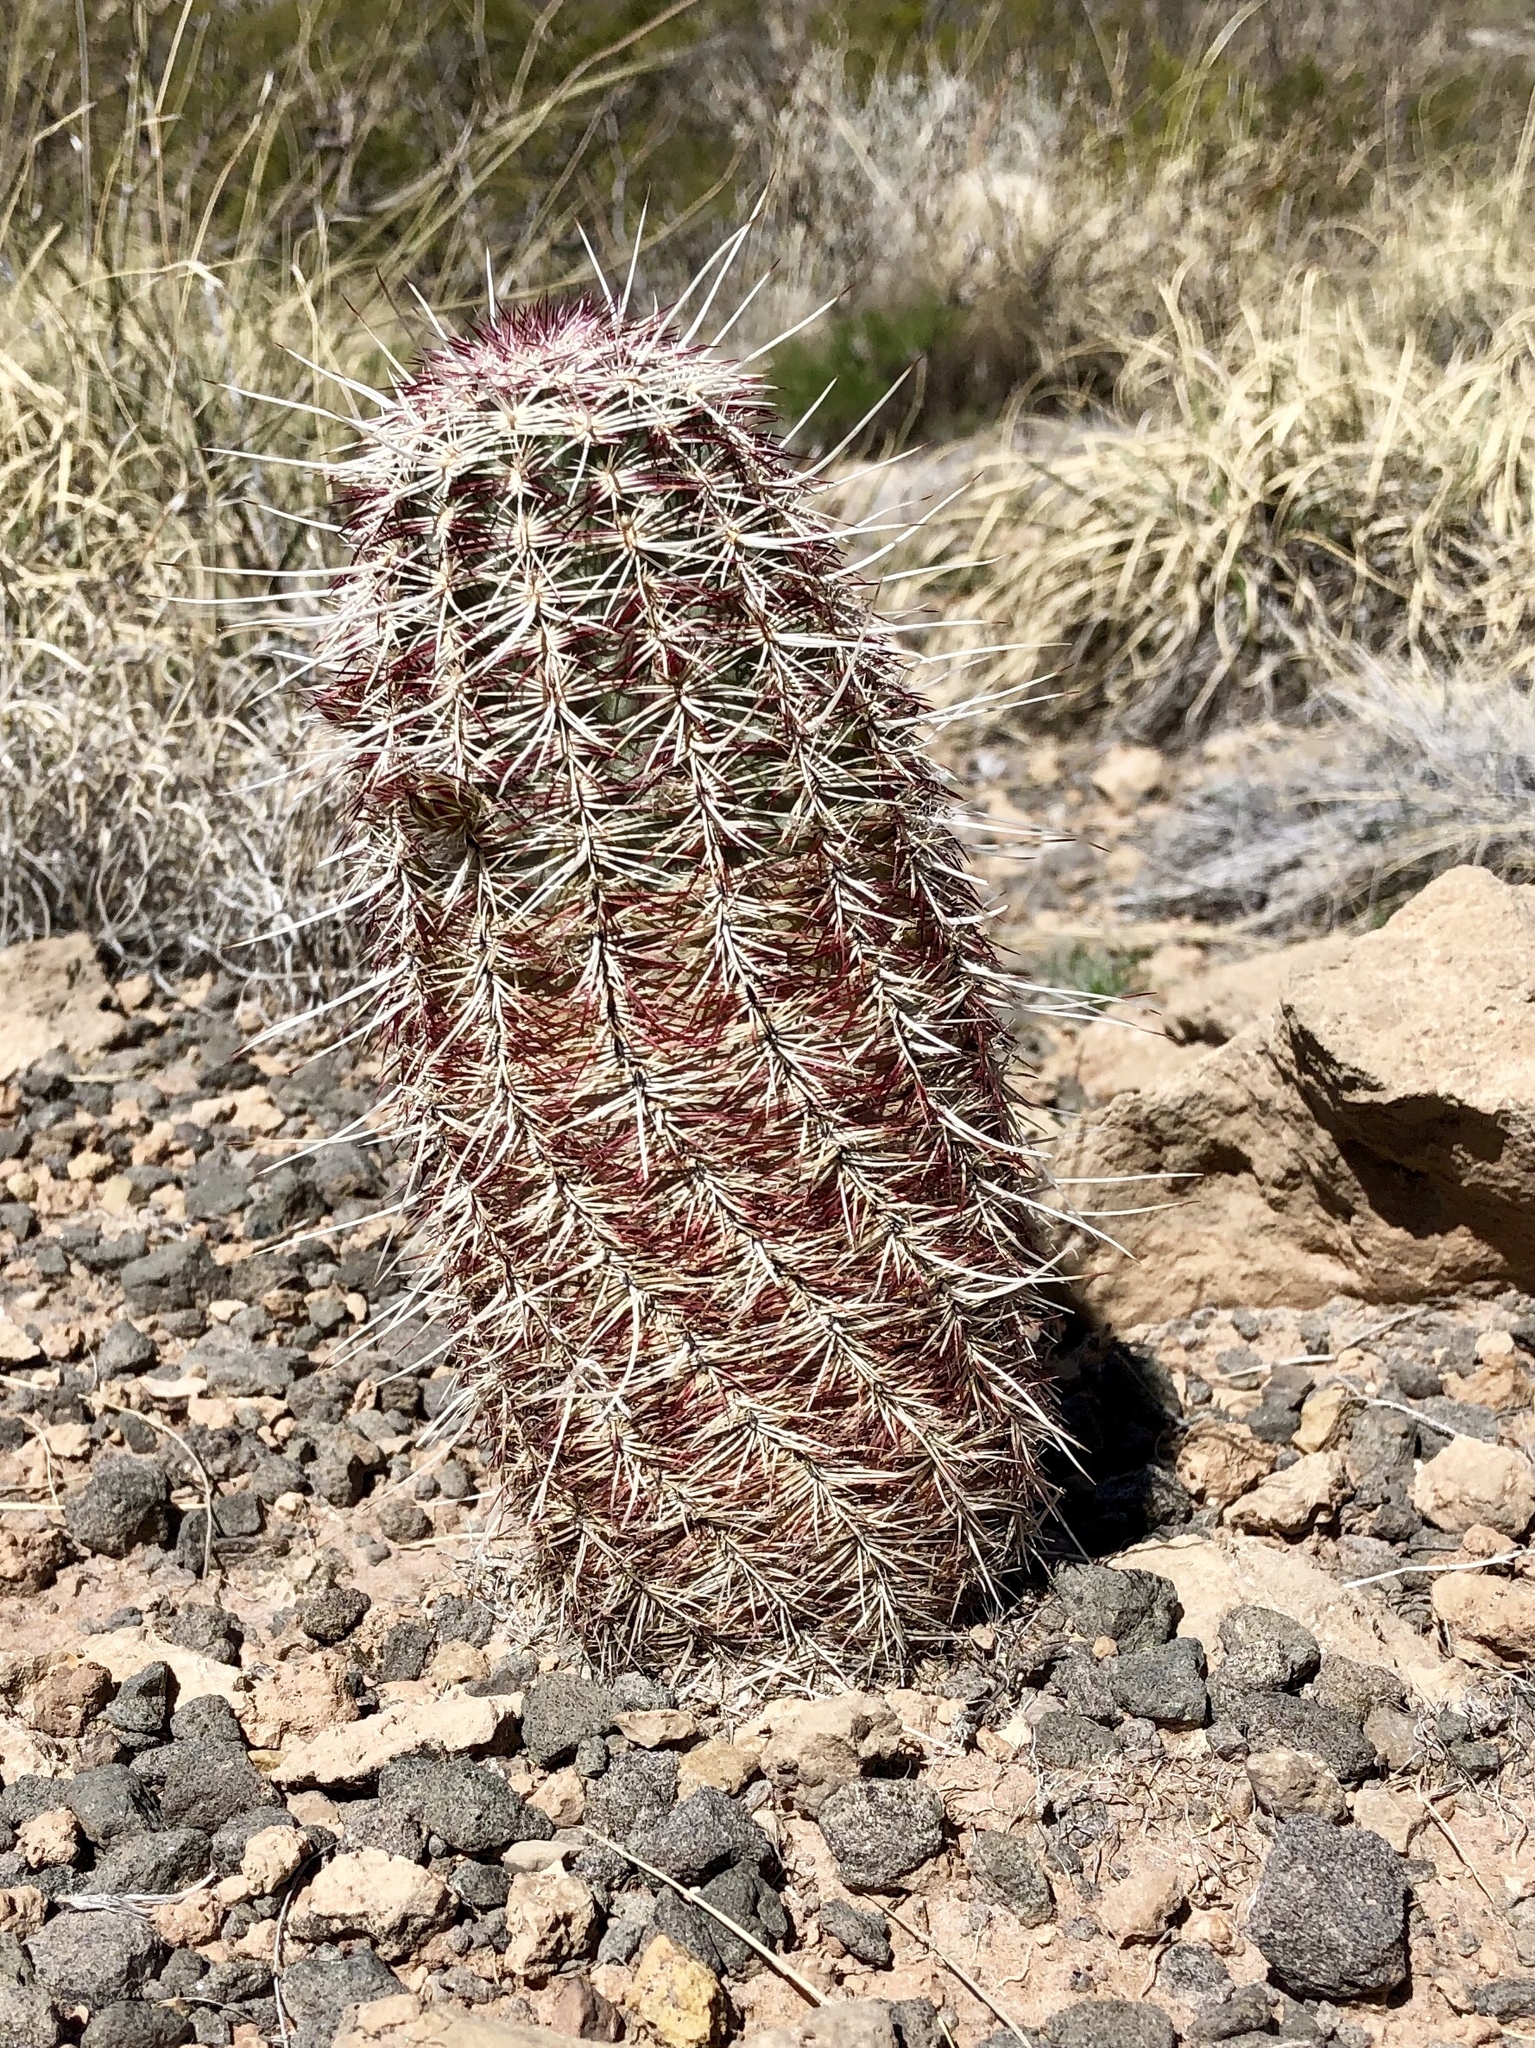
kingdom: Plantae
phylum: Tracheophyta
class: Magnoliopsida
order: Caryophyllales
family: Cactaceae
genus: Echinocereus
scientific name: Echinocereus viridiflorus
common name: Nylon hedgehog cactus
